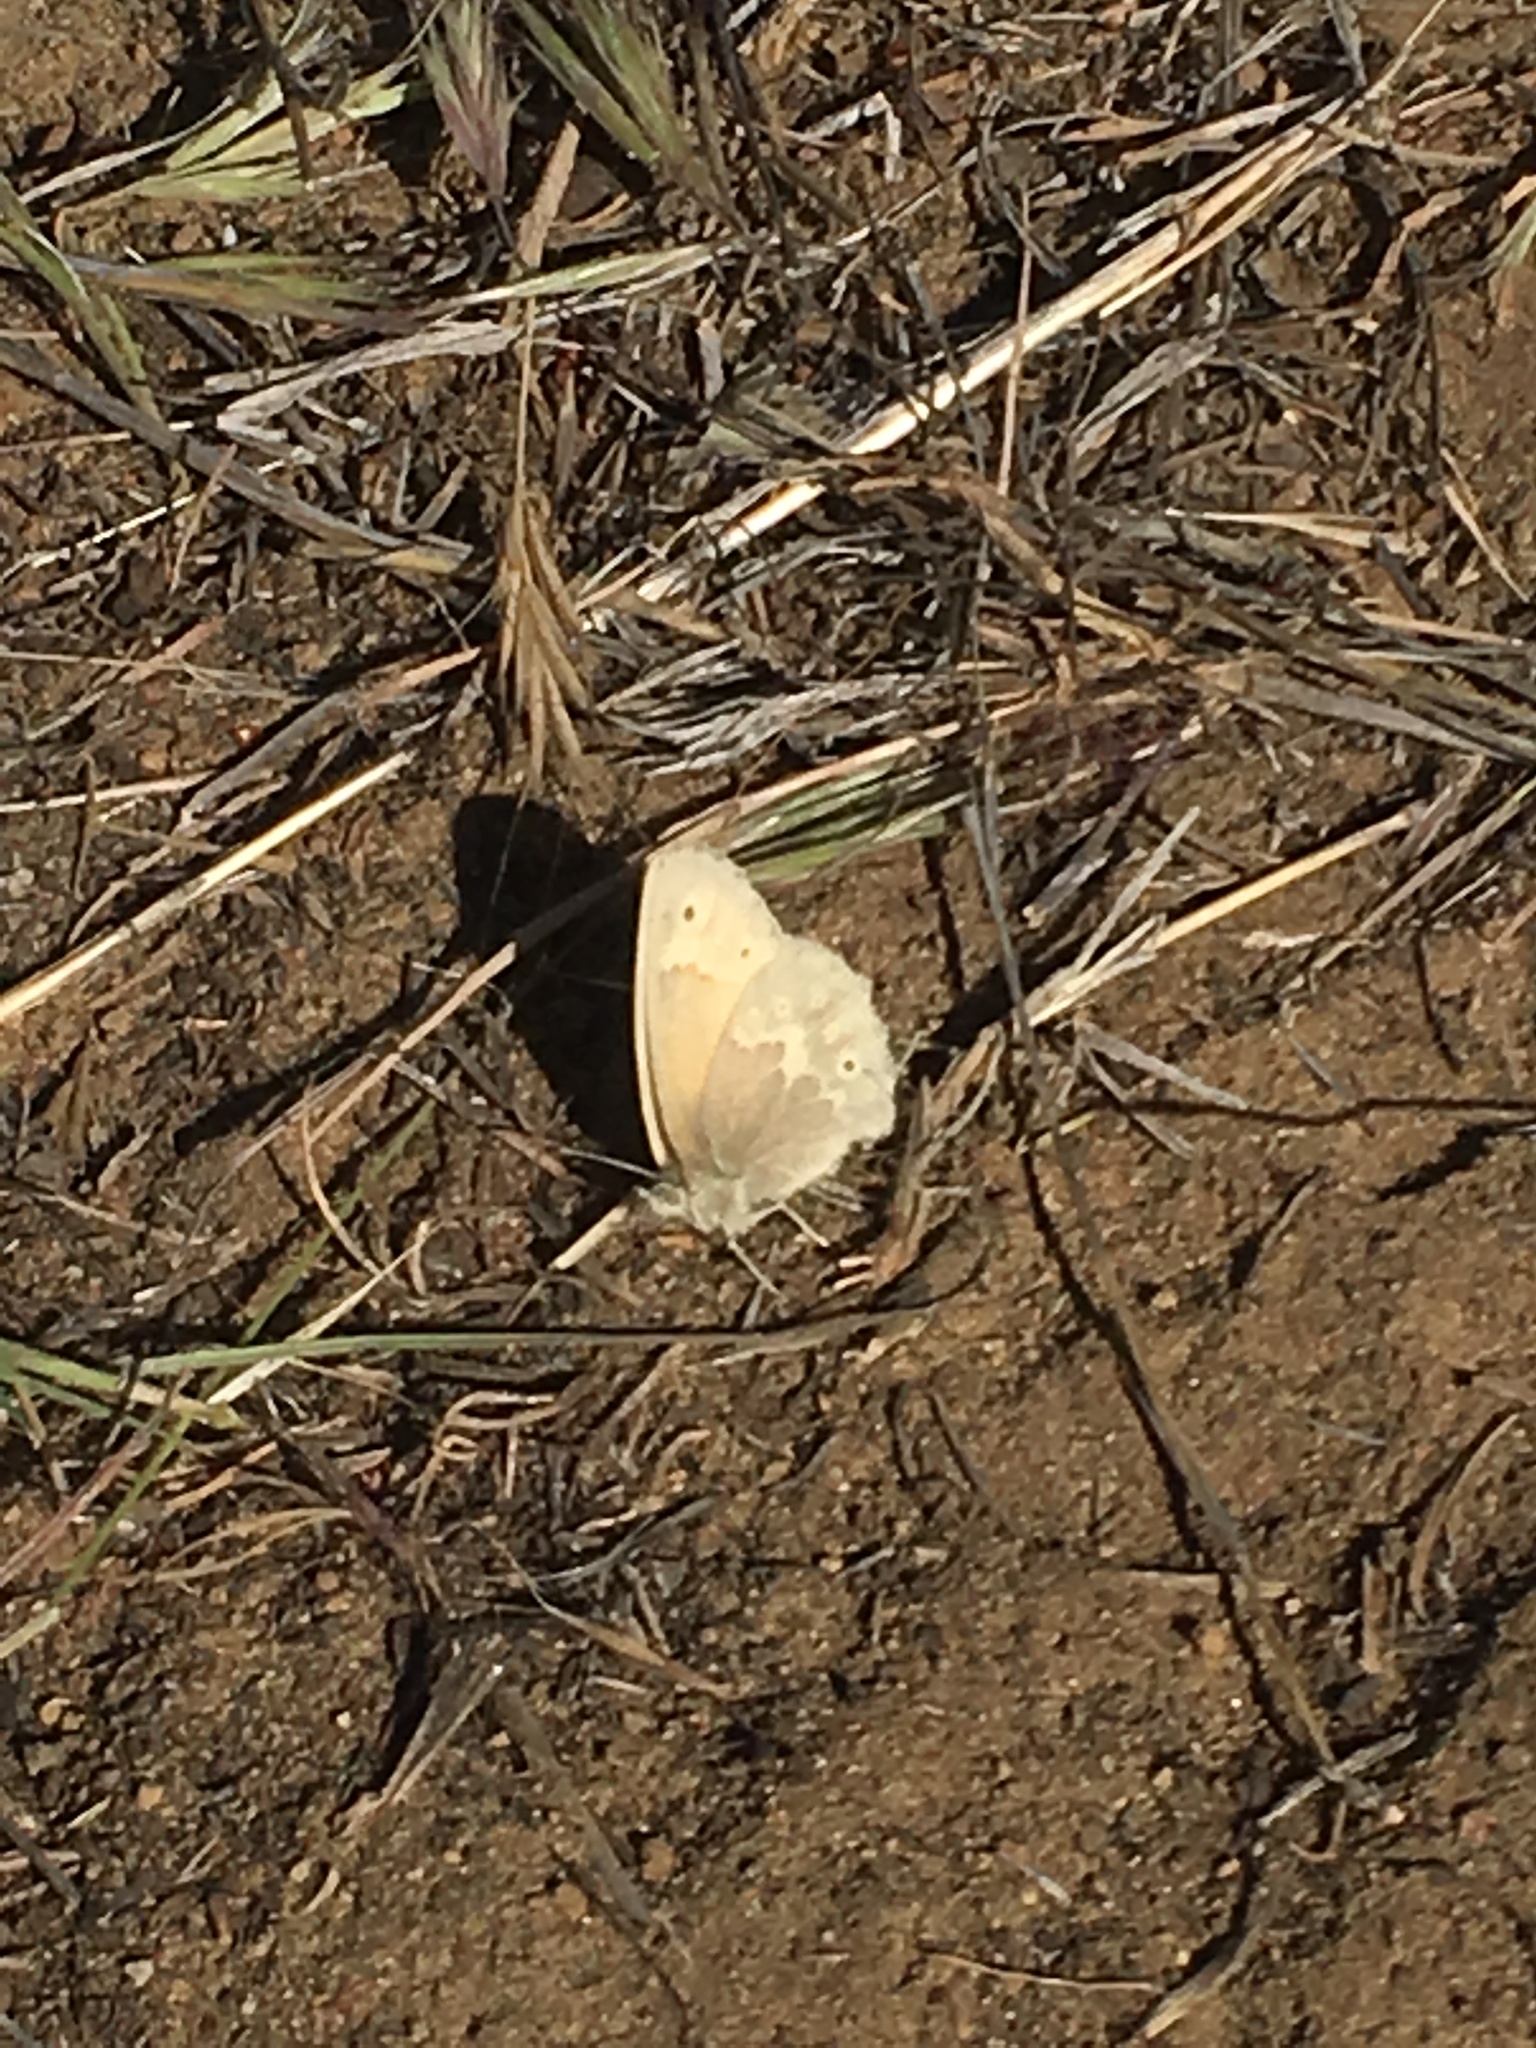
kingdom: Animalia
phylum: Arthropoda
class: Insecta
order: Lepidoptera
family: Nymphalidae
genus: Coenonympha
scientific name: Coenonympha california
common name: Common ringlet
